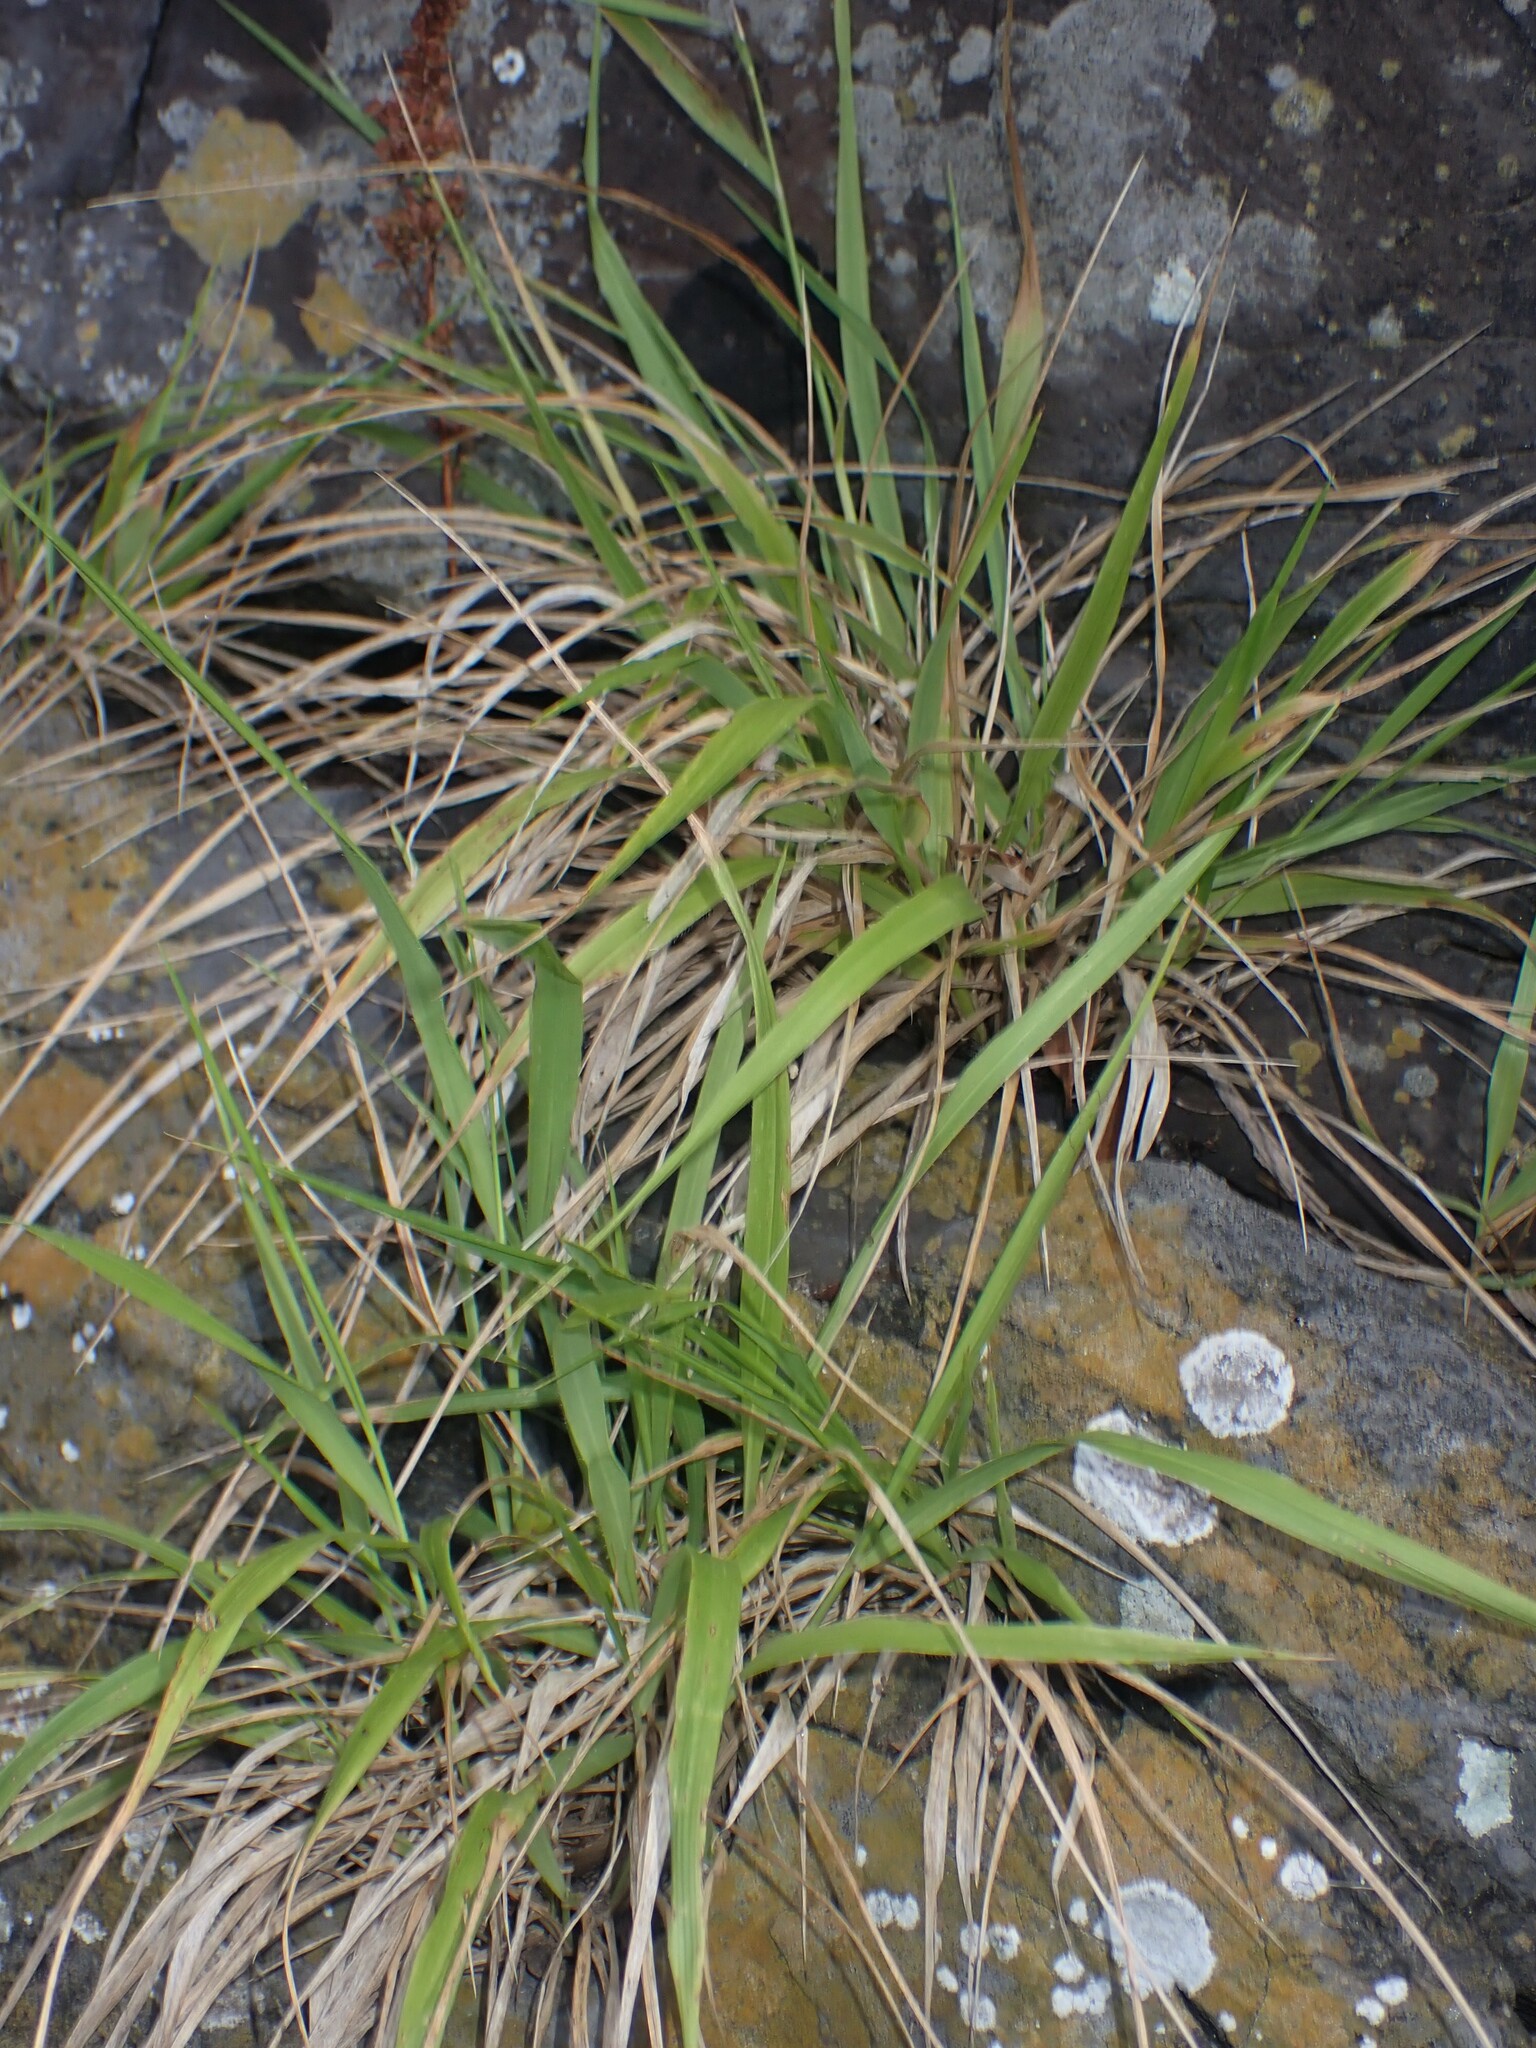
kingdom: Plantae
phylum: Tracheophyta
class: Liliopsida
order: Poales
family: Poaceae
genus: Brachypodium
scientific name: Brachypodium sylvaticum
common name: False-brome
